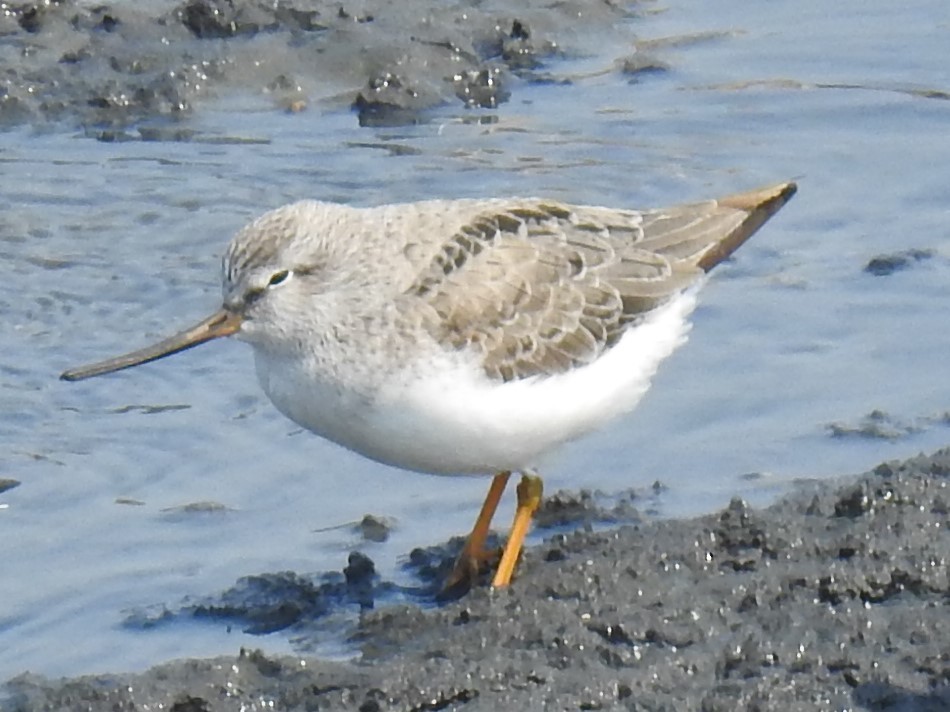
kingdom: Animalia
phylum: Chordata
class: Aves
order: Charadriiformes
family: Scolopacidae
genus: Xenus
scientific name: Xenus cinereus
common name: Terek sandpiper
